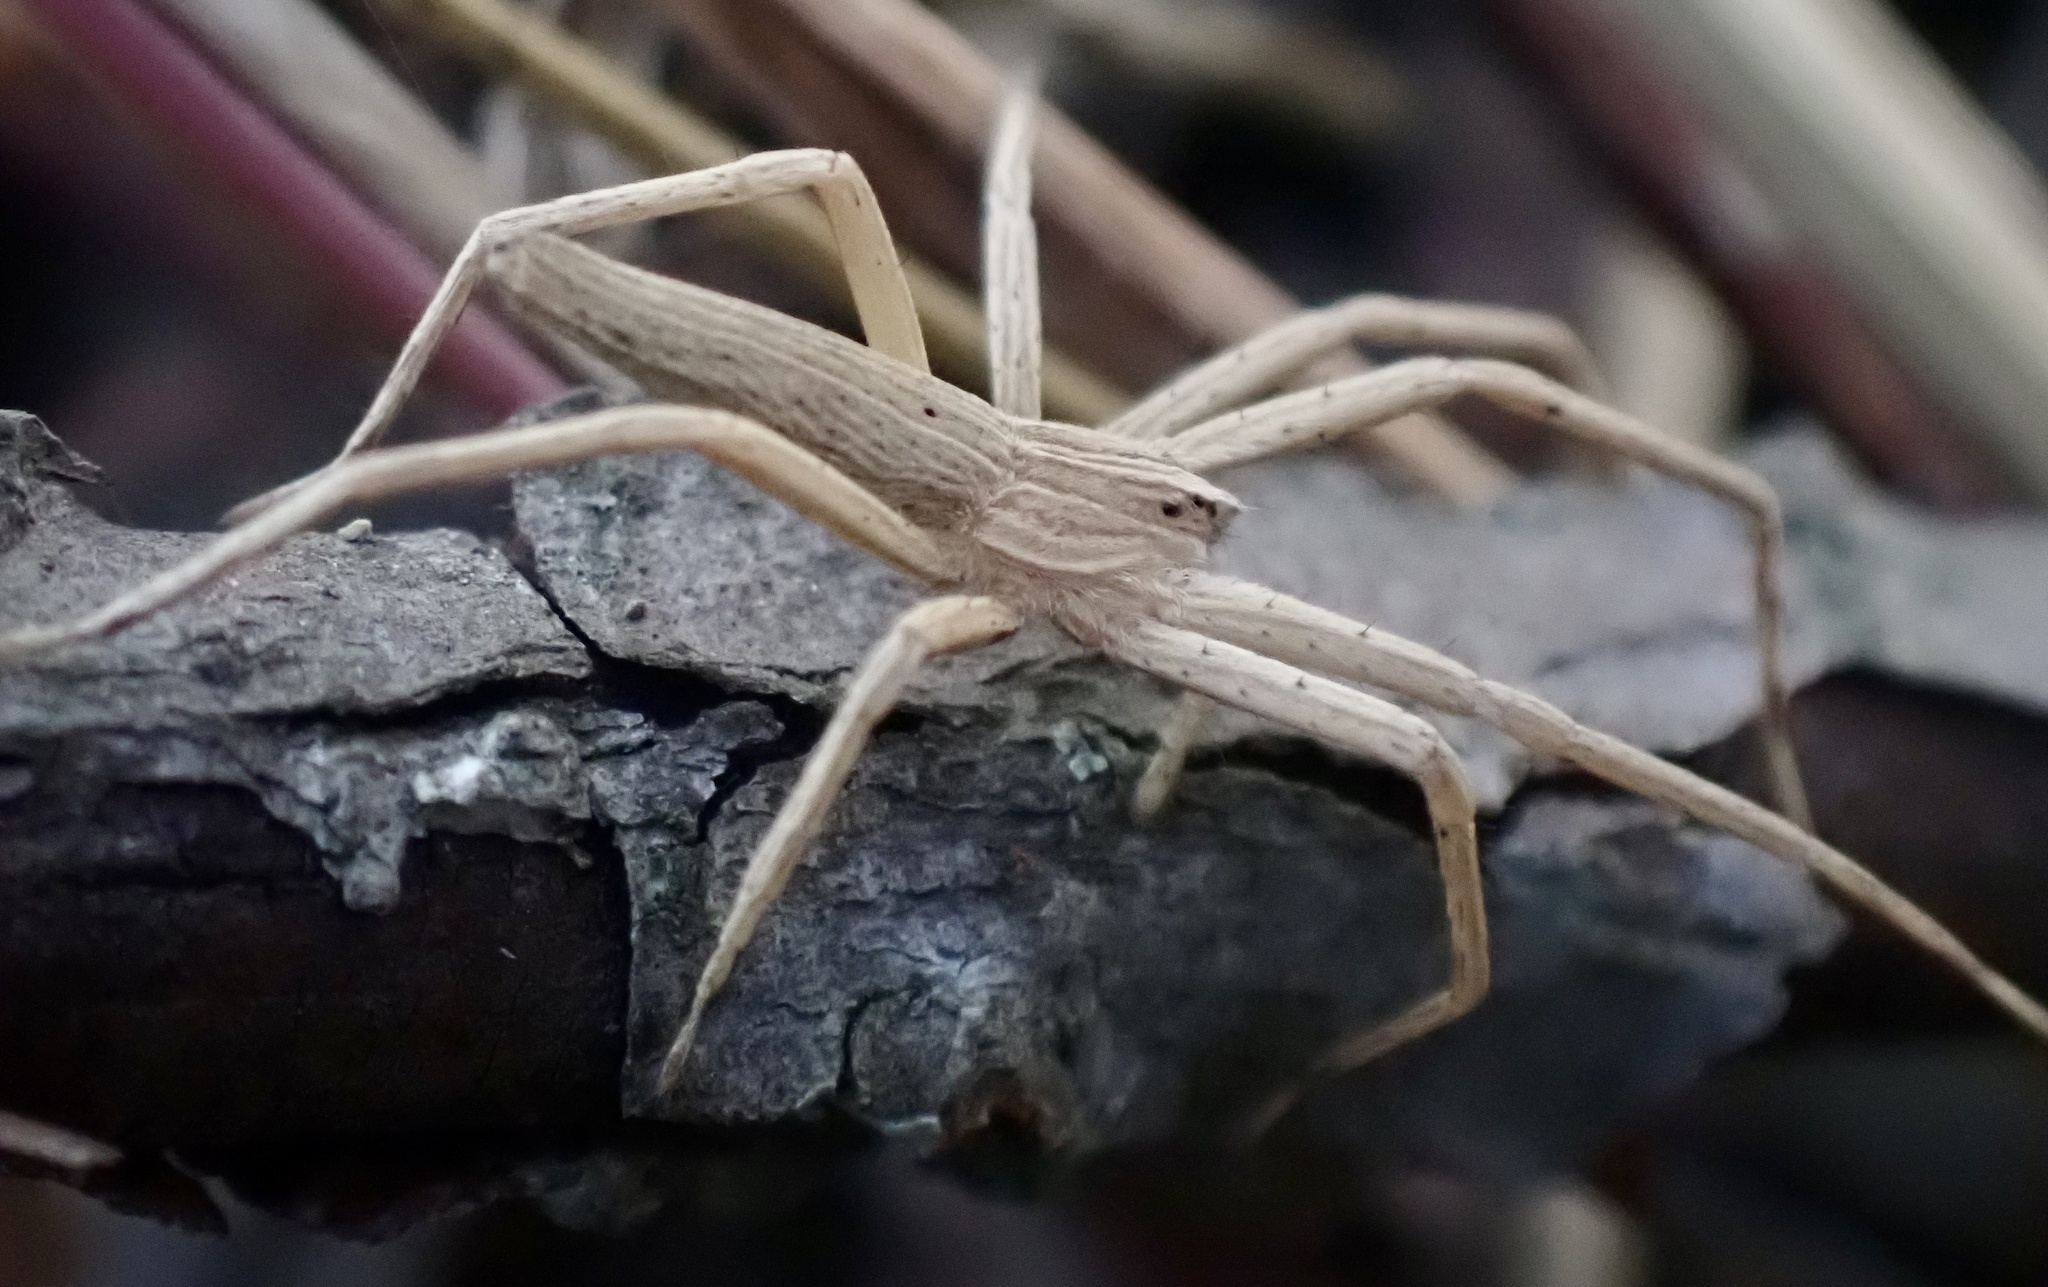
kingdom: Animalia
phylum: Arthropoda
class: Arachnida
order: Araneae
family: Pisauridae
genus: Pisaurina
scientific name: Pisaurina dubia
